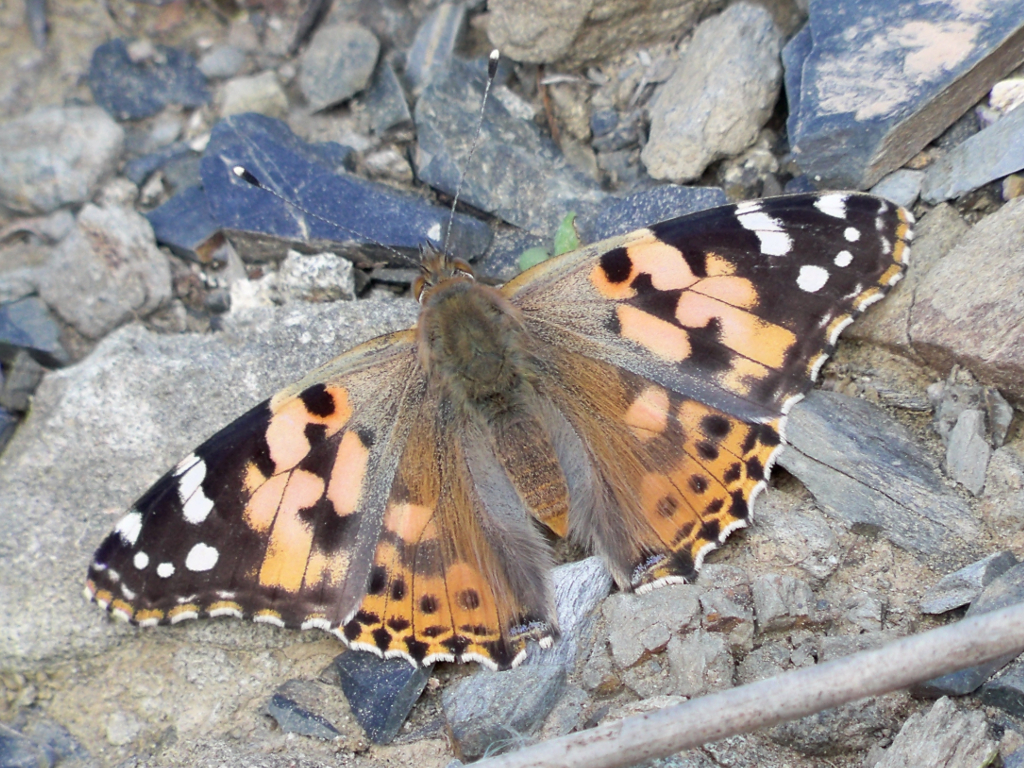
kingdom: Animalia
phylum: Arthropoda
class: Insecta
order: Lepidoptera
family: Nymphalidae
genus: Vanessa
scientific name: Vanessa cardui
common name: Painted lady
